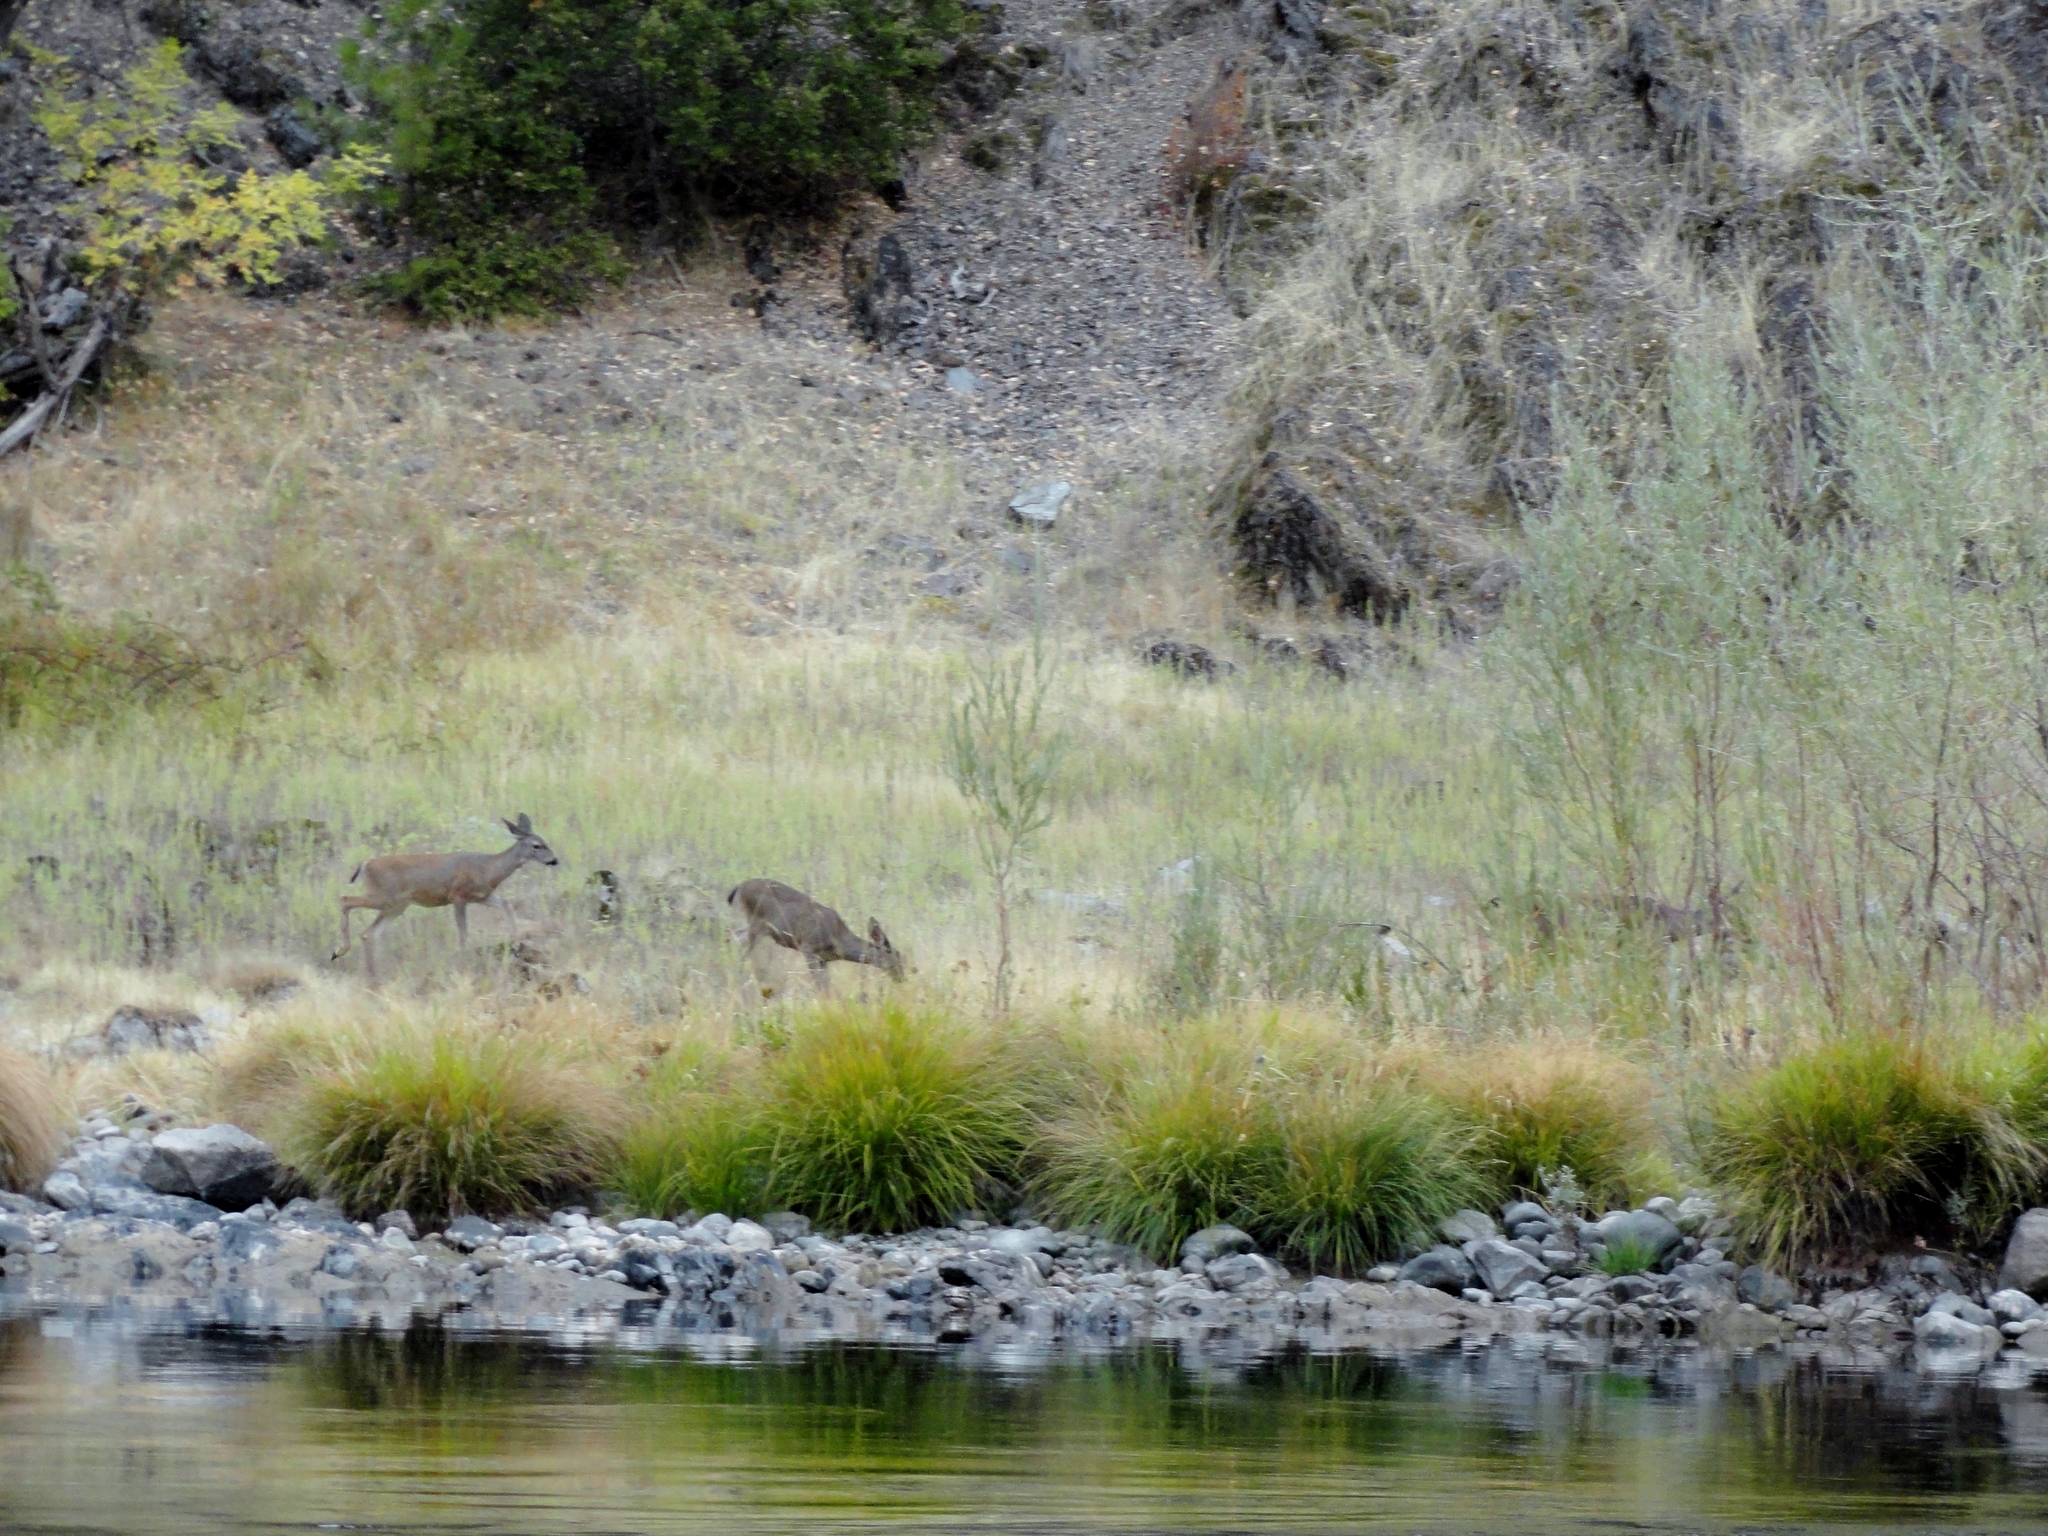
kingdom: Animalia
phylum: Chordata
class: Mammalia
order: Artiodactyla
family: Cervidae
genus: Odocoileus
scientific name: Odocoileus hemionus
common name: Mule deer
